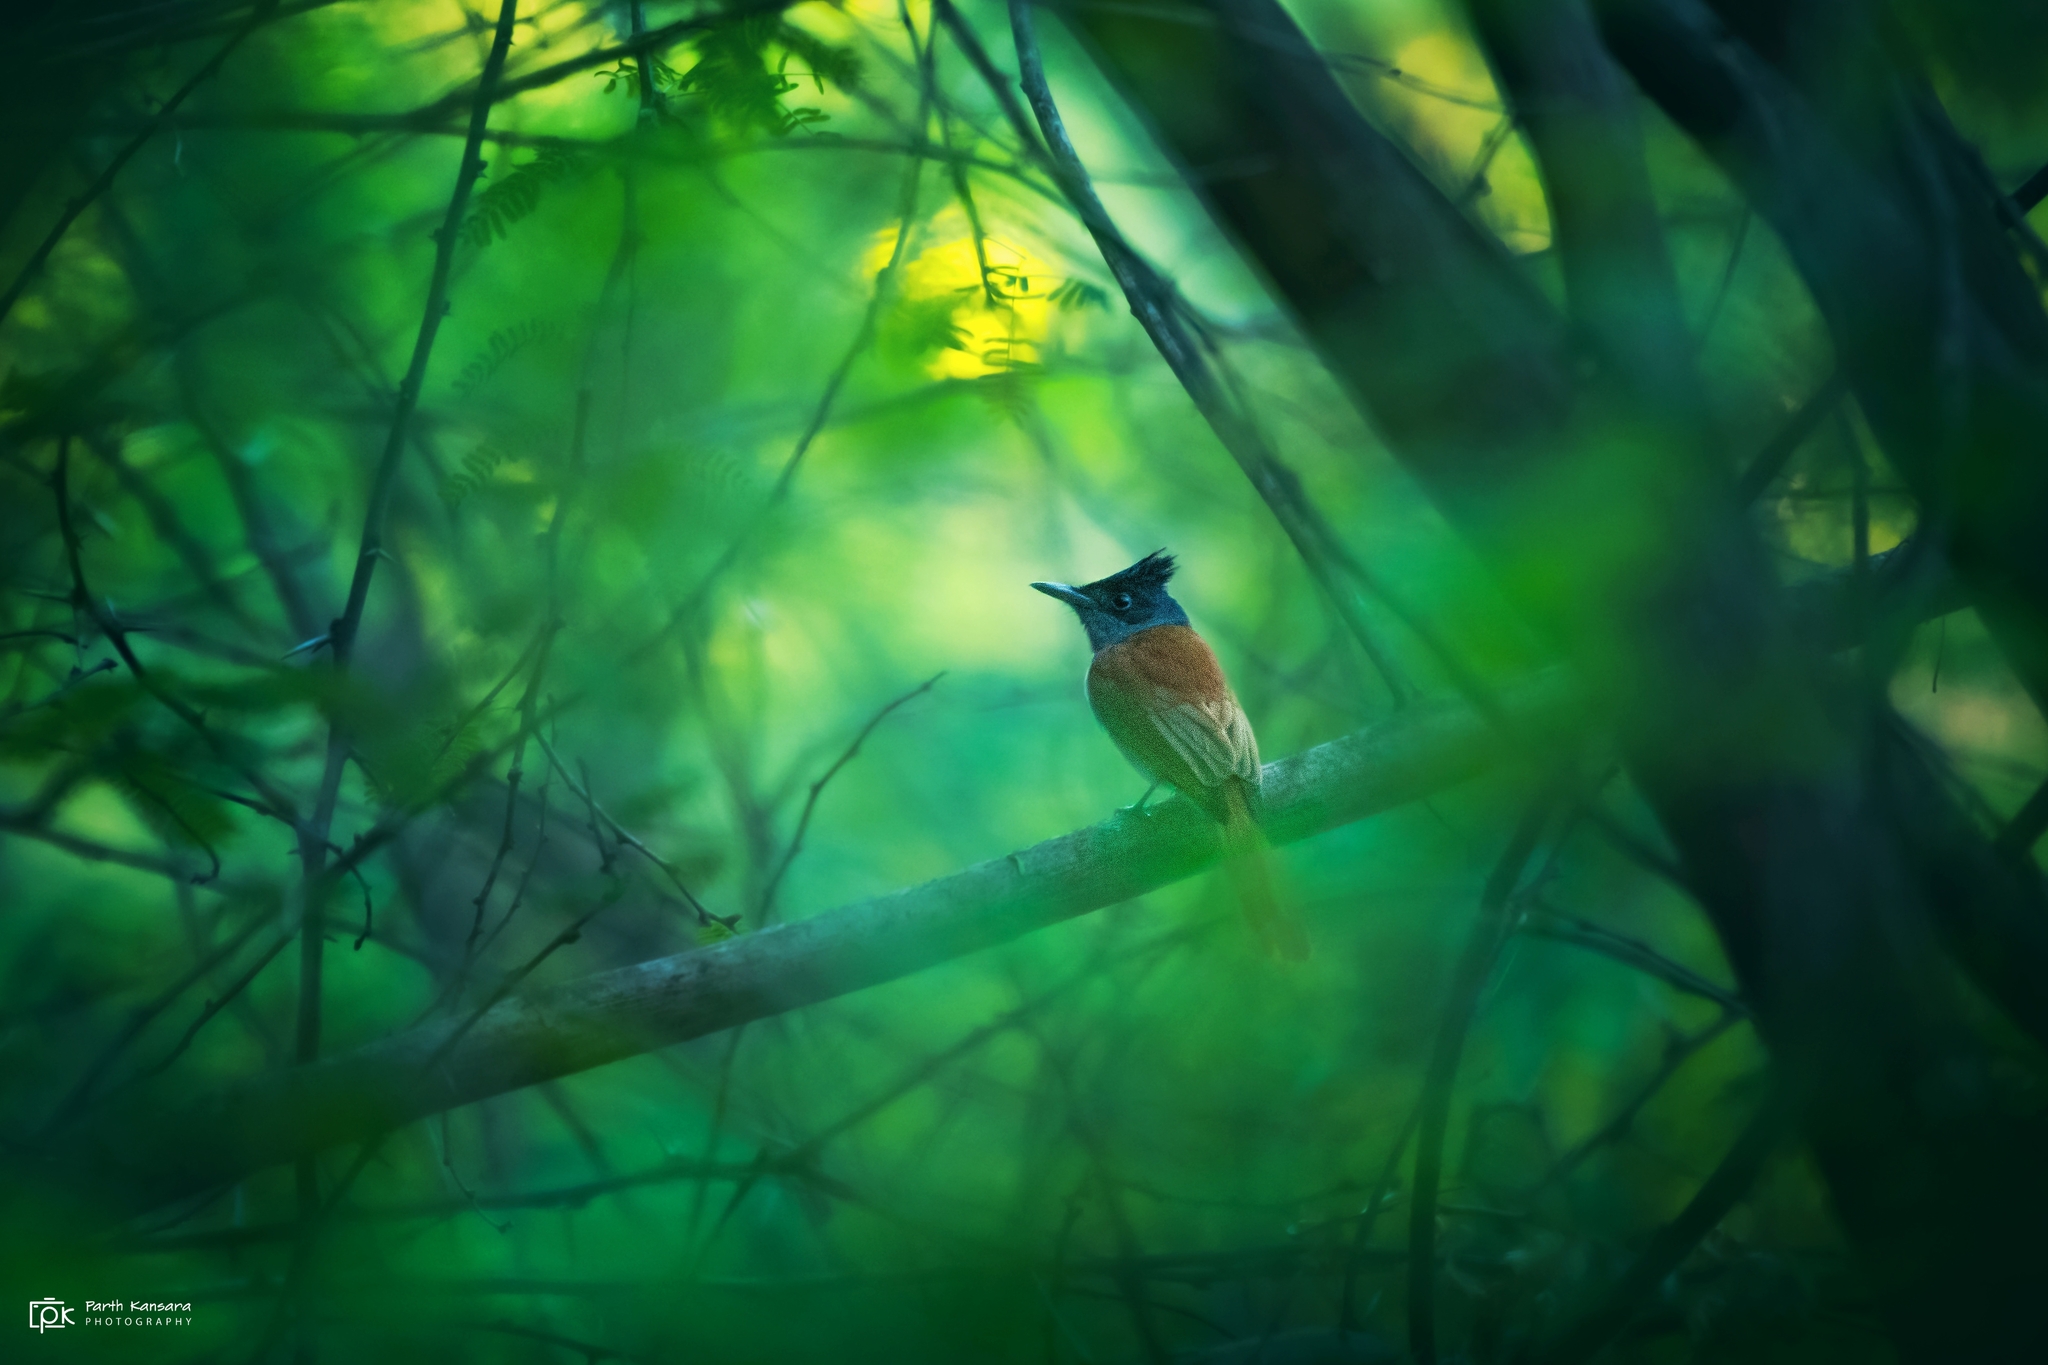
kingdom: Animalia
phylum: Chordata
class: Aves
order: Passeriformes
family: Monarchidae
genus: Terpsiphone
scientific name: Terpsiphone paradisi
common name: Indian paradise flycatcher
